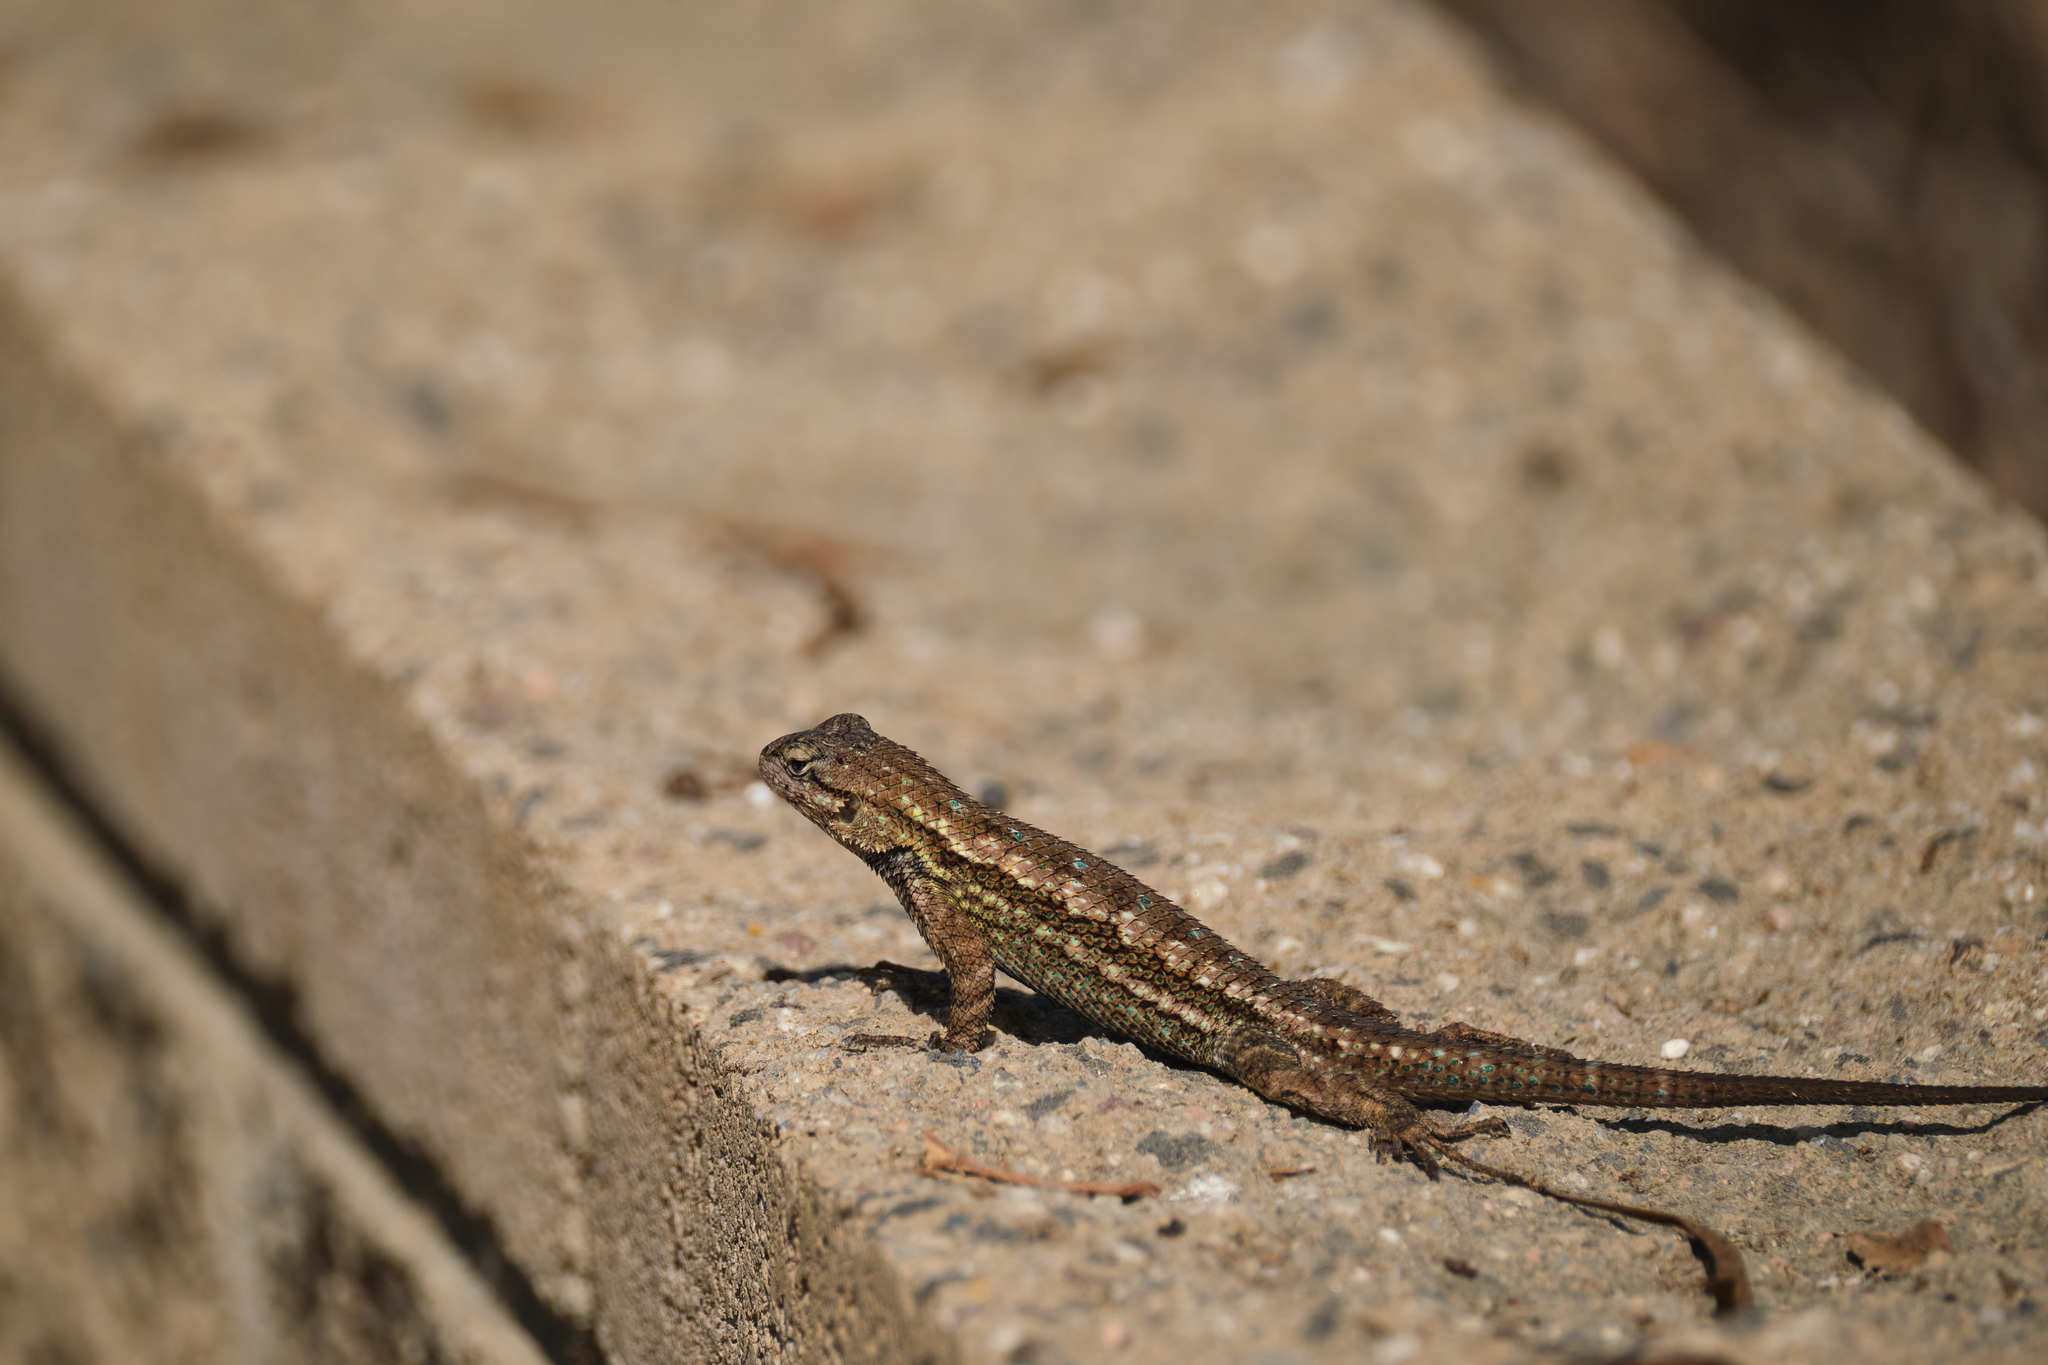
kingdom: Animalia
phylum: Chordata
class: Squamata
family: Phrynosomatidae
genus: Sceloporus
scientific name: Sceloporus occidentalis
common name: Western fence lizard
